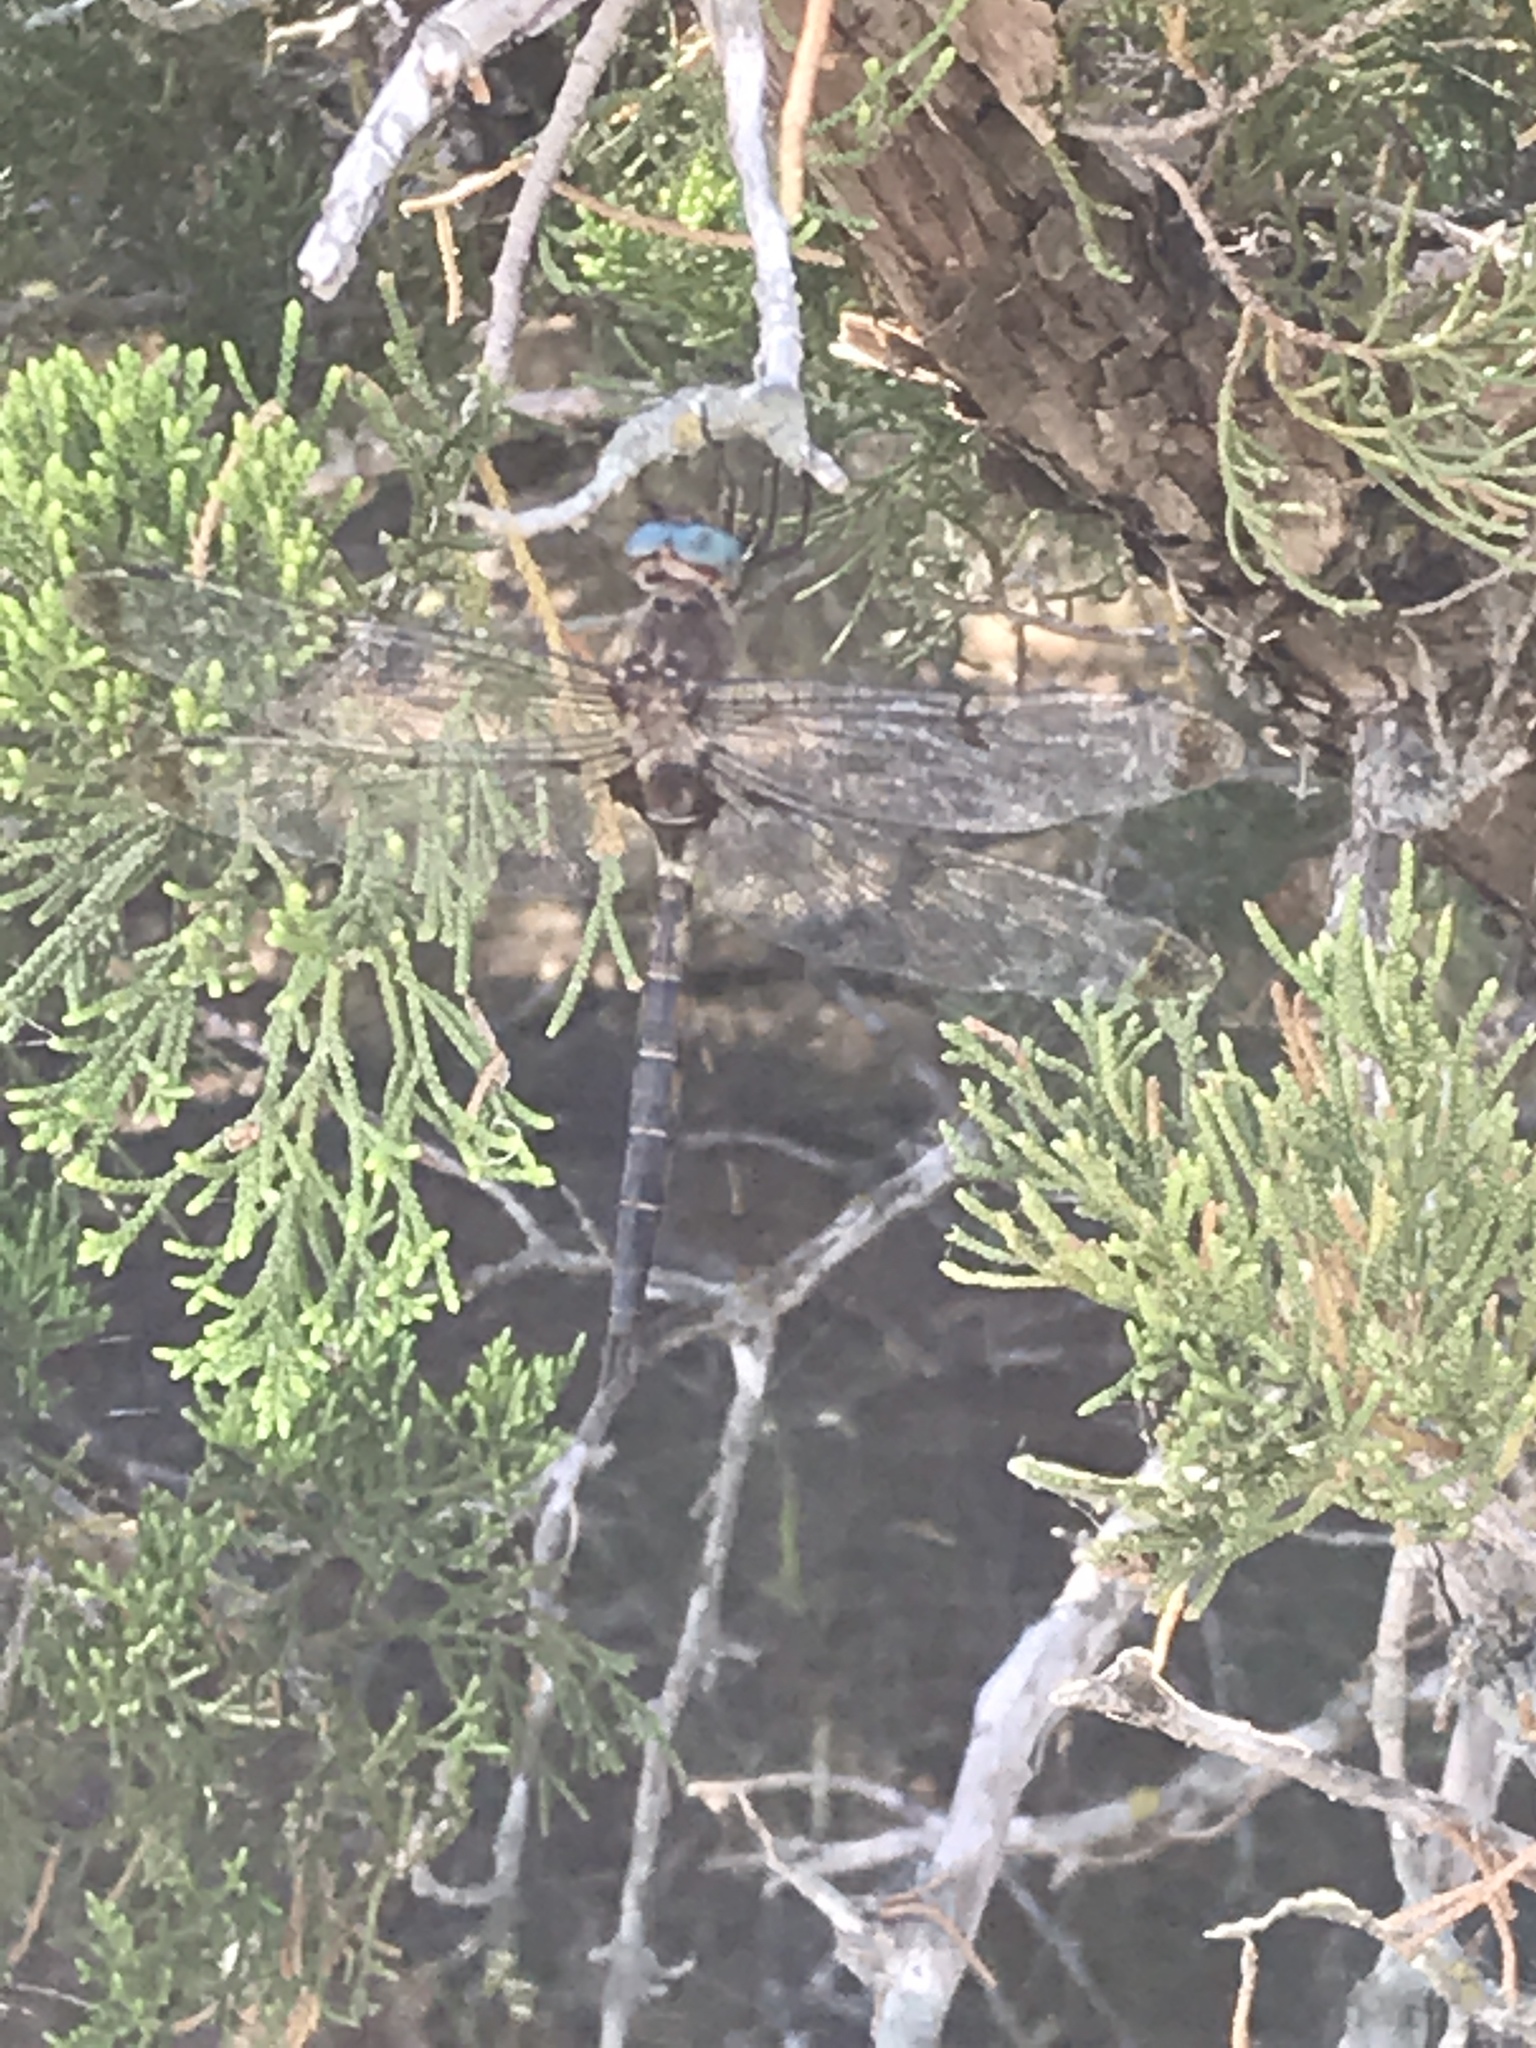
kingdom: Animalia
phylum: Arthropoda
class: Insecta
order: Odonata
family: Corduliidae
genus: Epitheca
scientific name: Epitheca princeps
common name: Prince baskettail
